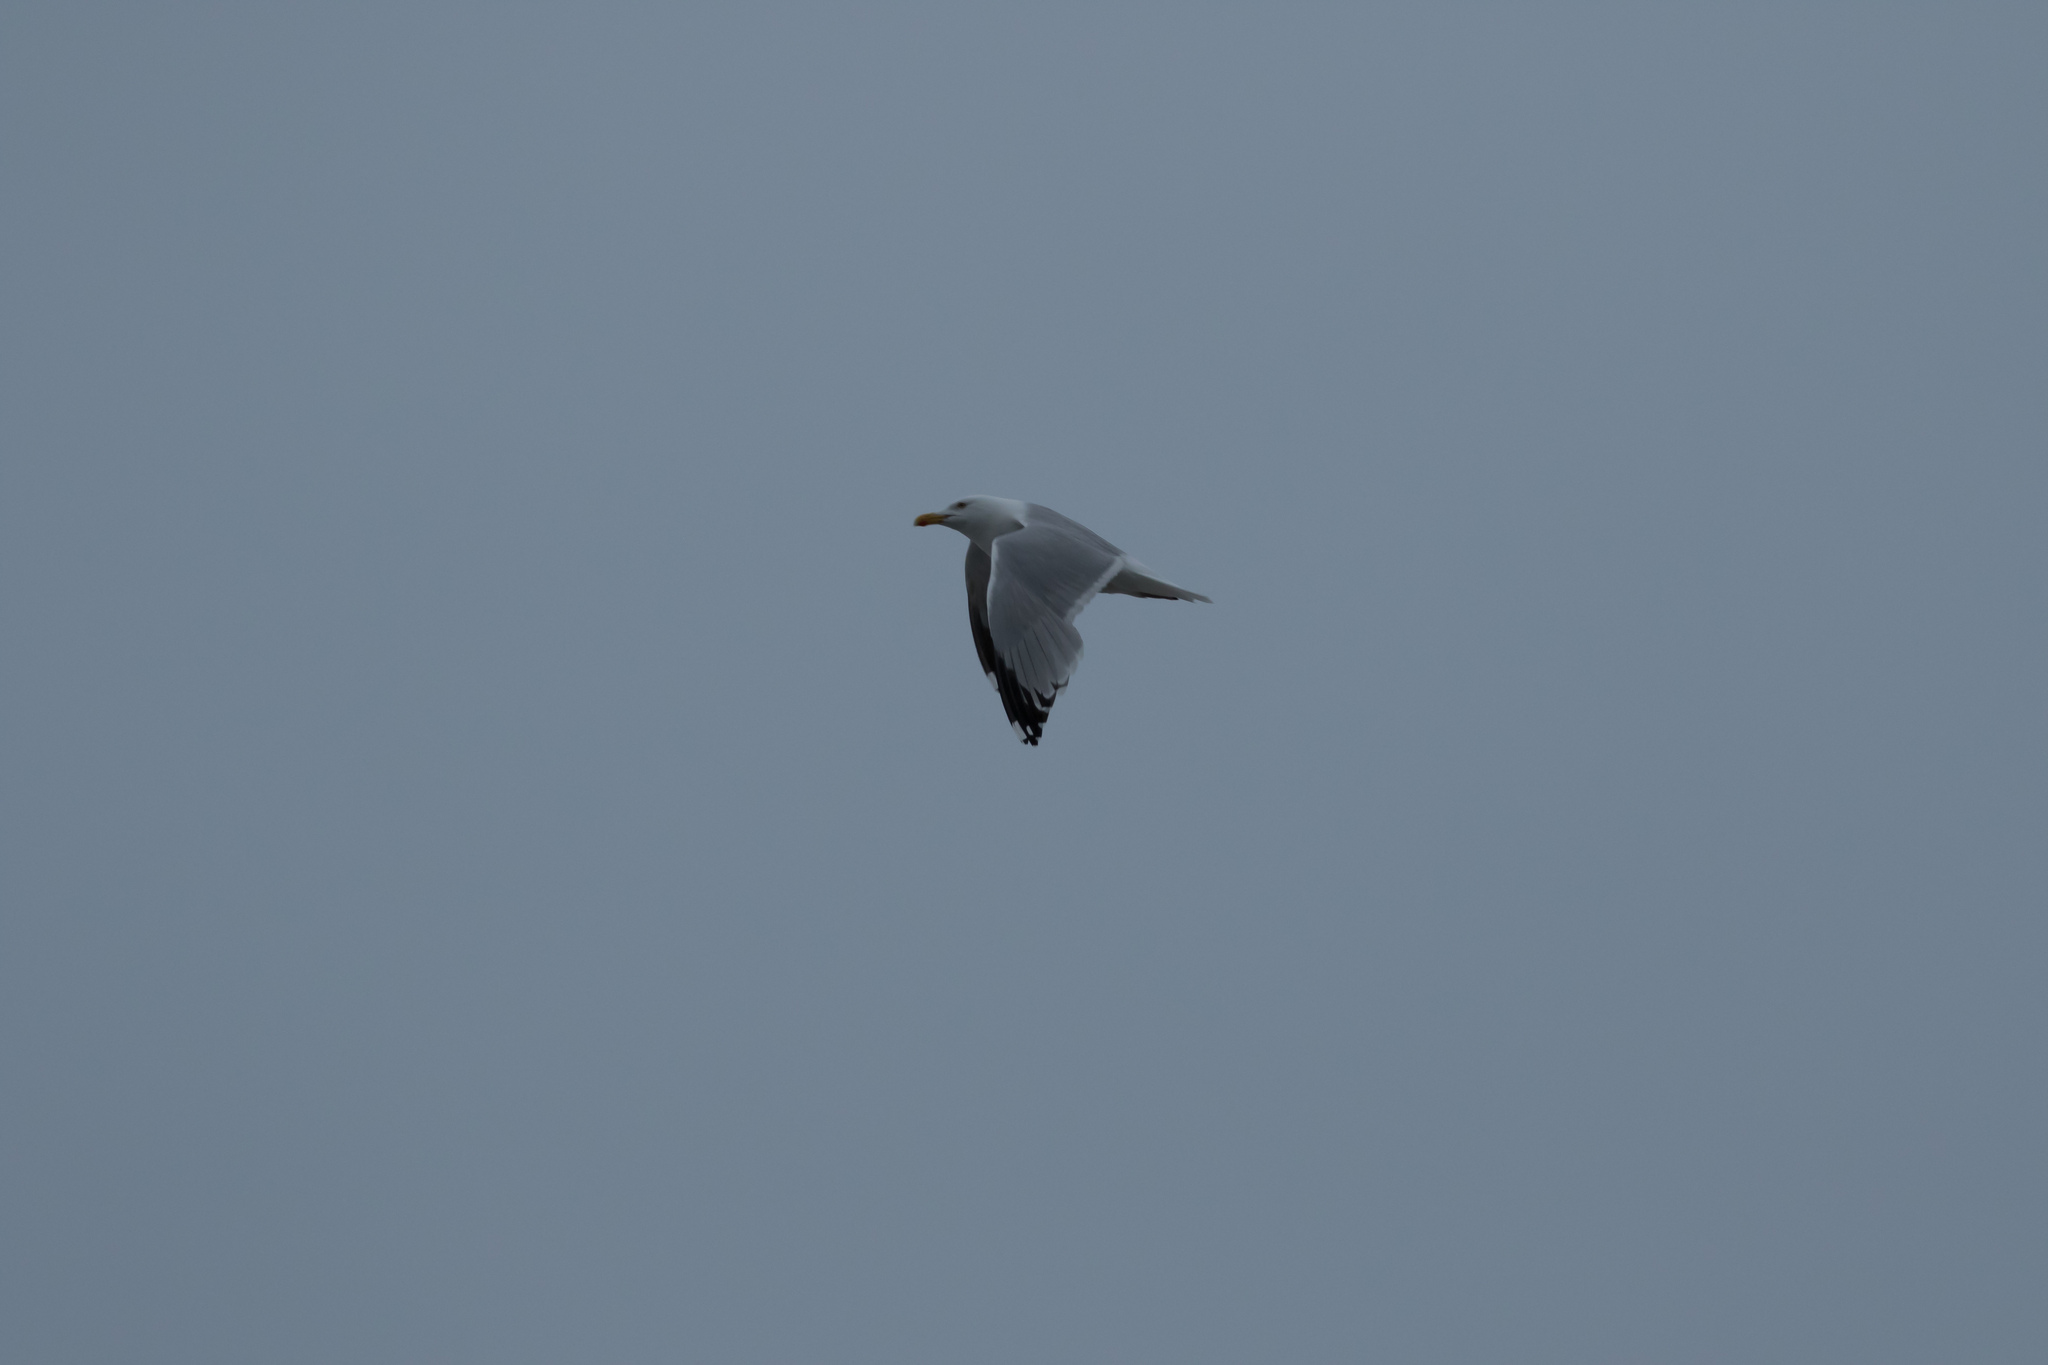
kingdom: Animalia
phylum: Chordata
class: Aves
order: Charadriiformes
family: Laridae
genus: Larus
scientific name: Larus argentatus
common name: Herring gull
